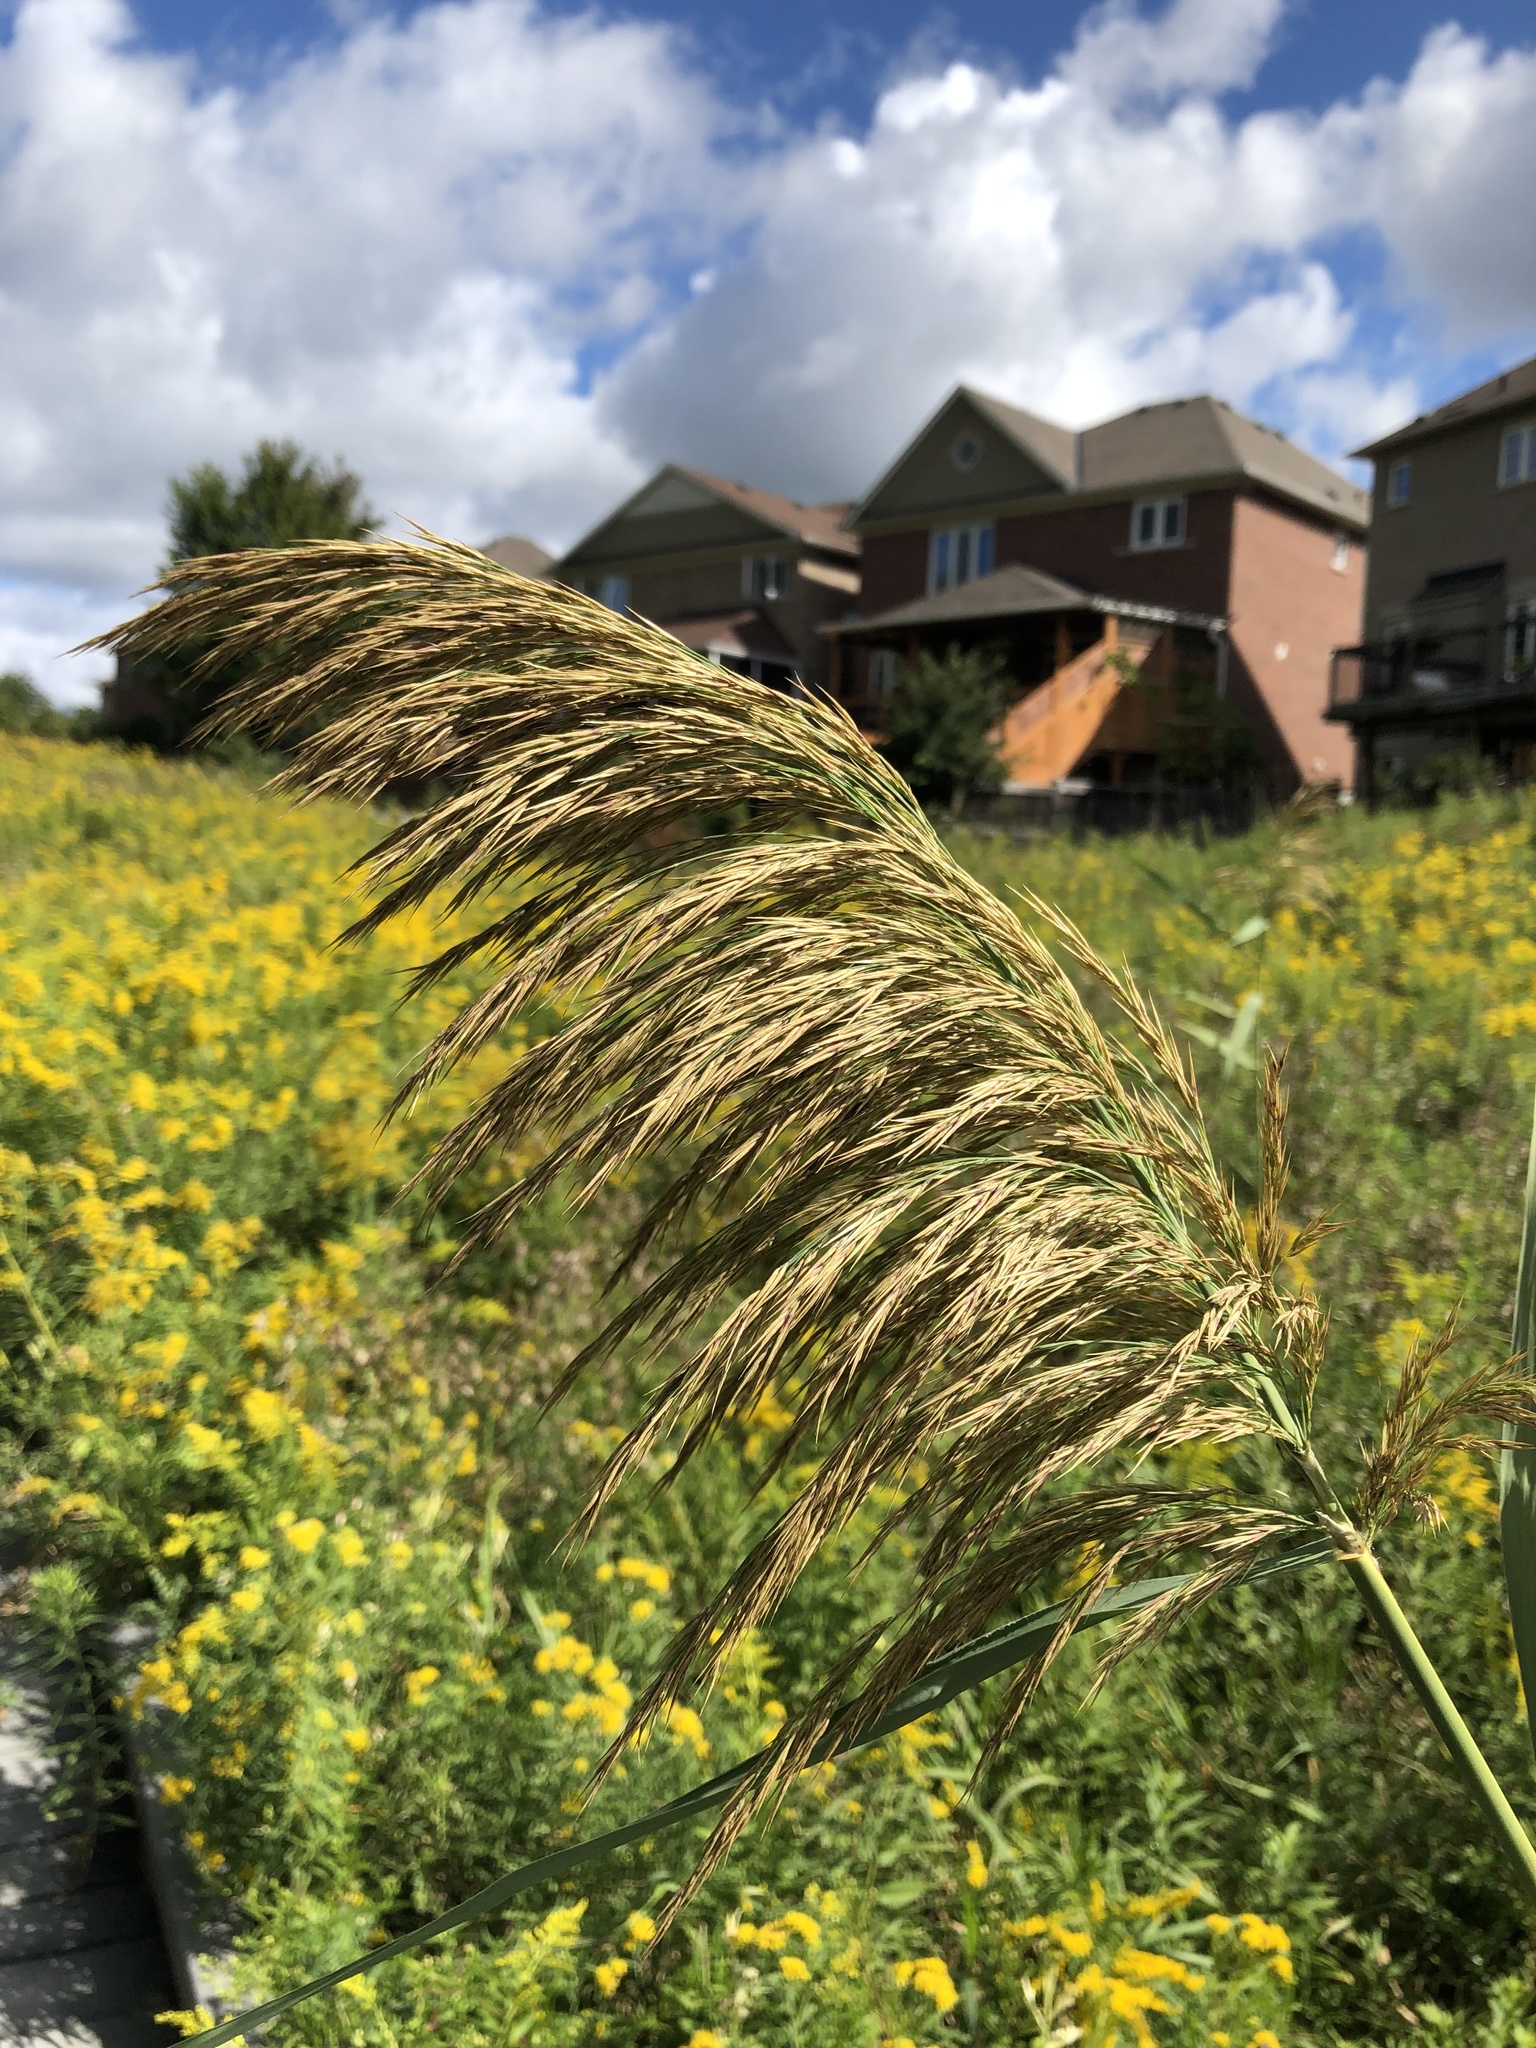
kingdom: Plantae
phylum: Tracheophyta
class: Liliopsida
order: Poales
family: Poaceae
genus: Phragmites
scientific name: Phragmites australis
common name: Common reed
